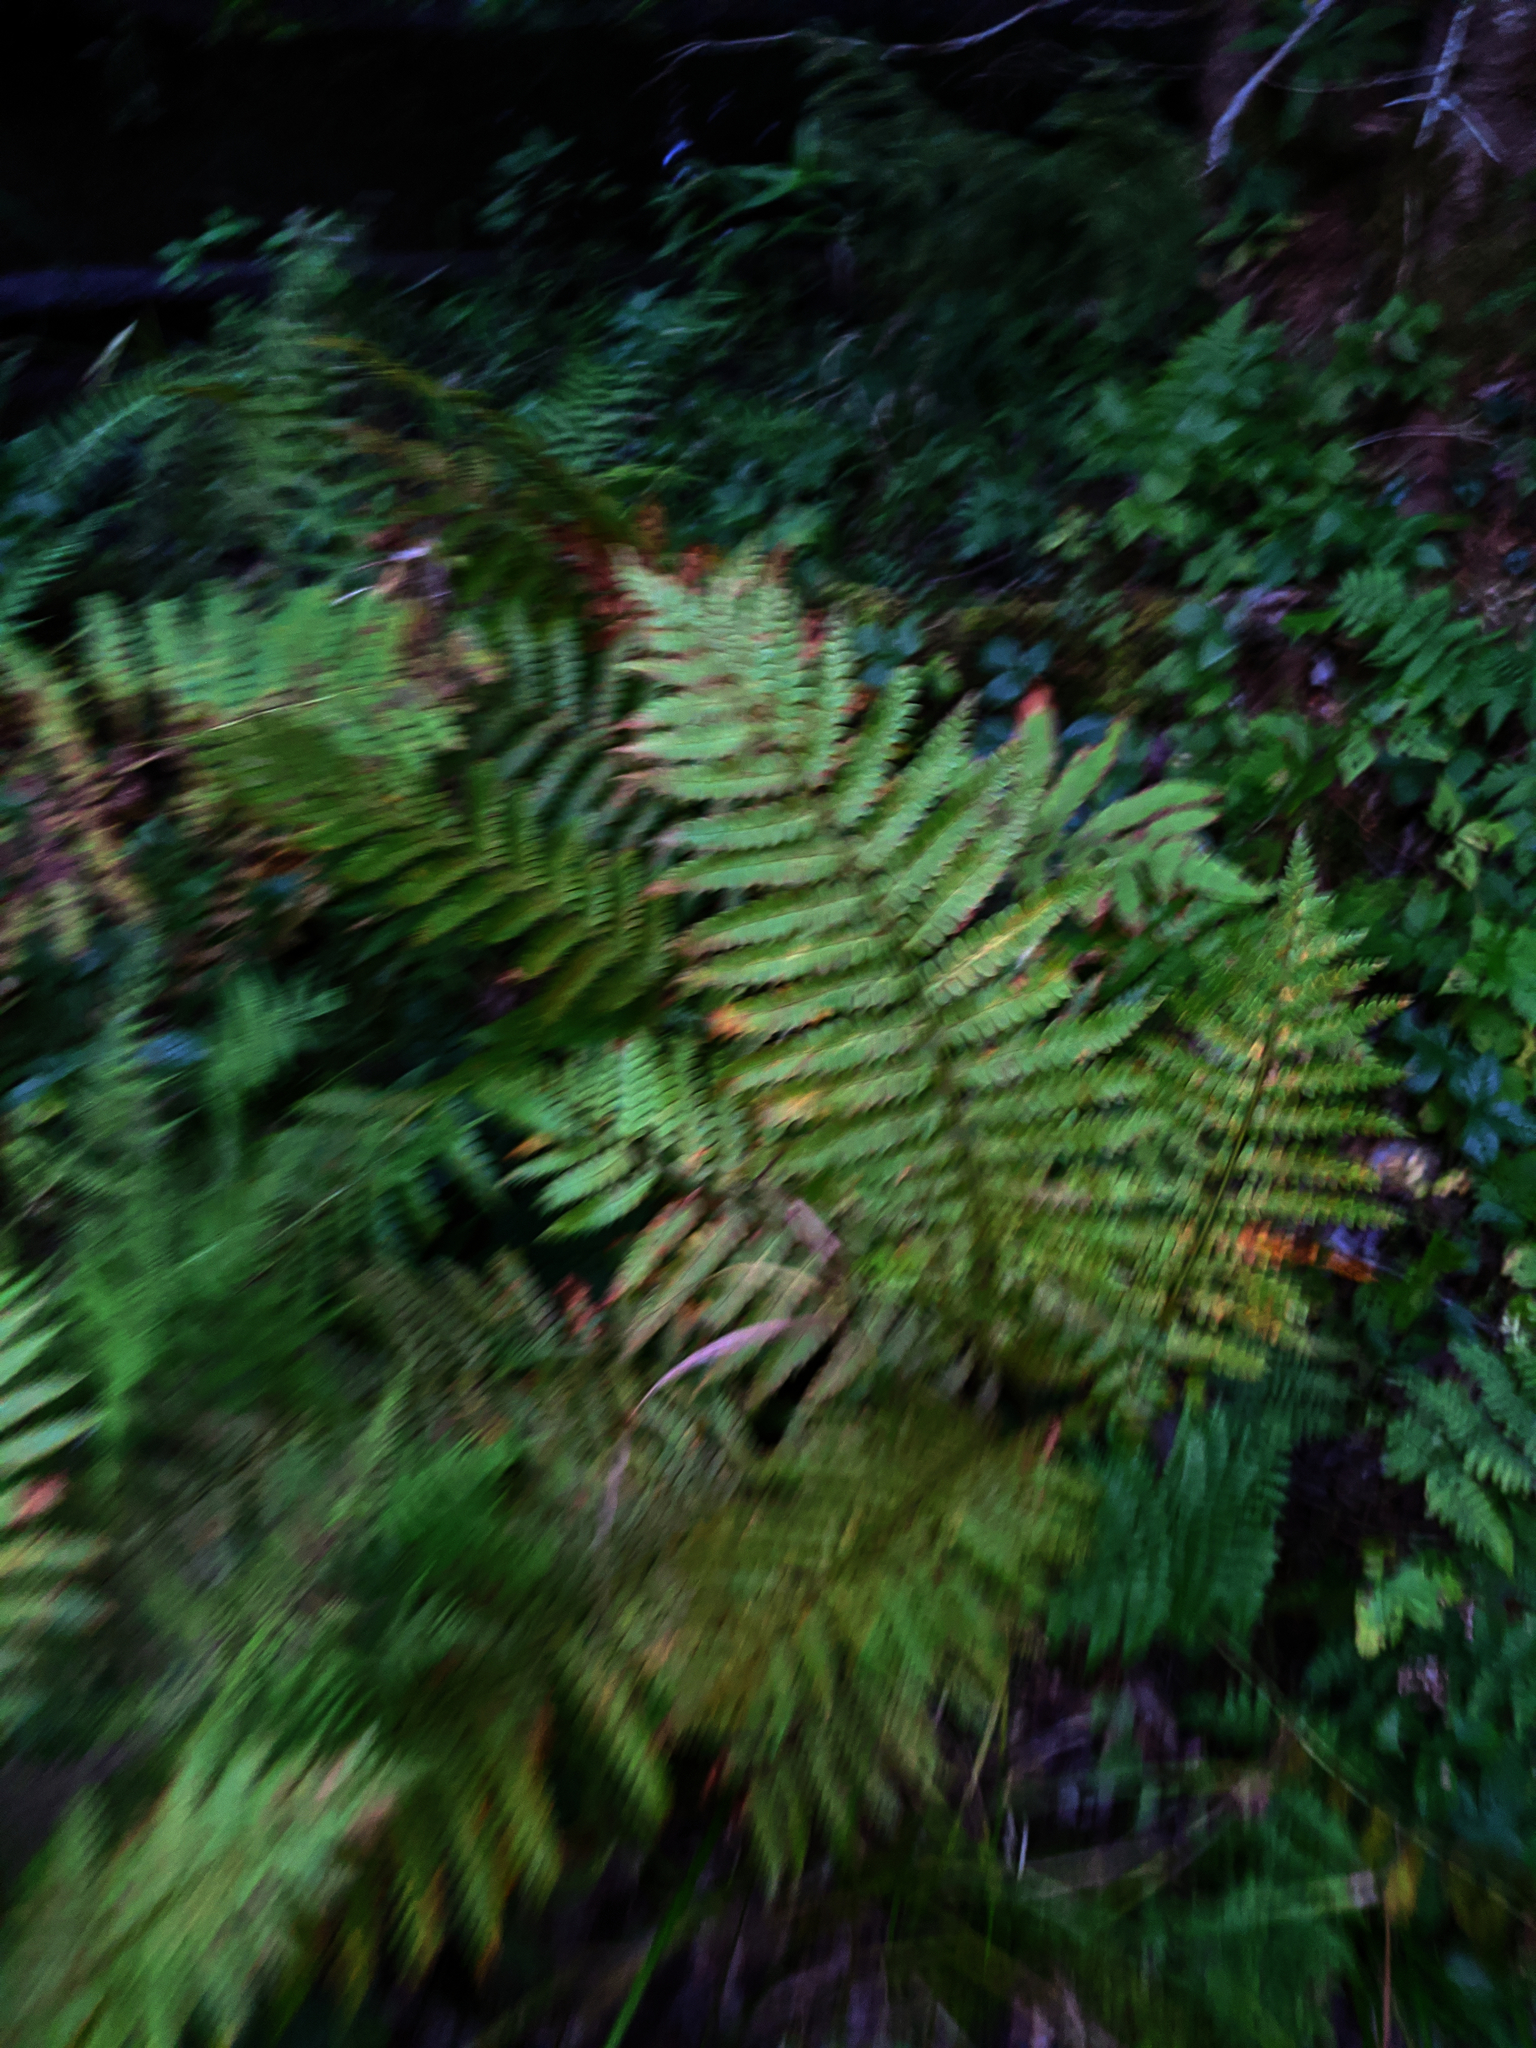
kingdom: Plantae
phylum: Tracheophyta
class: Polypodiopsida
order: Osmundales
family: Osmundaceae
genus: Osmundastrum
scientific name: Osmundastrum cinnamomeum
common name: Cinnamon fern
